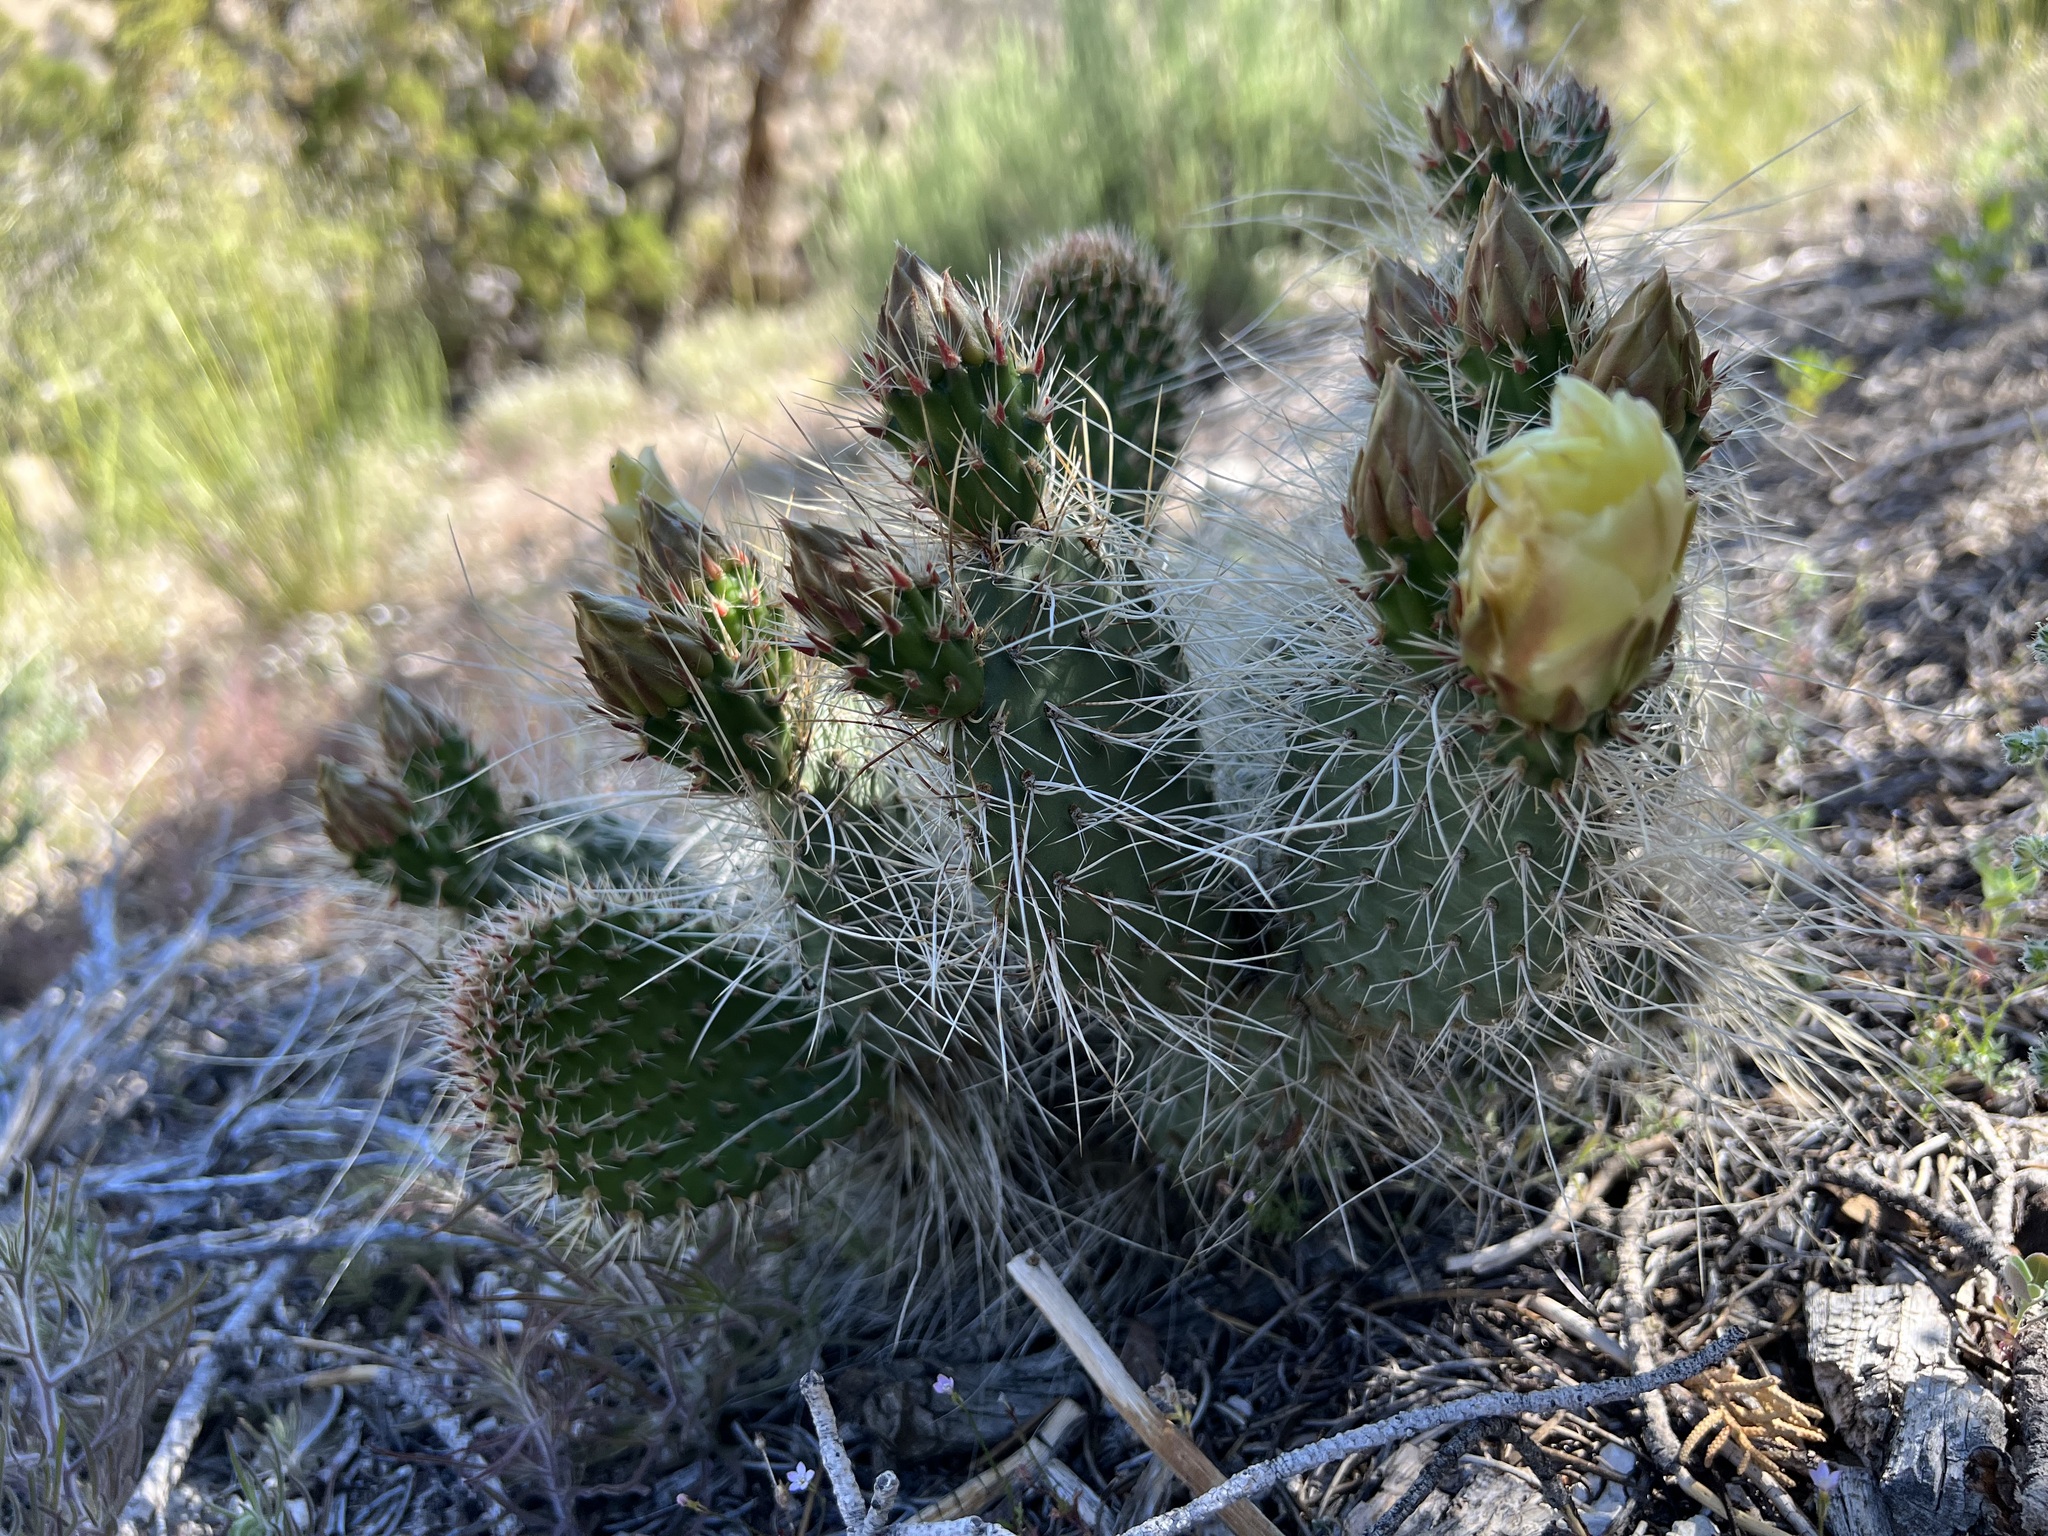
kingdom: Plantae
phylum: Tracheophyta
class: Magnoliopsida
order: Caryophyllales
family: Cactaceae
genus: Opuntia
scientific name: Opuntia polyacantha
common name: Plains prickly-pear
